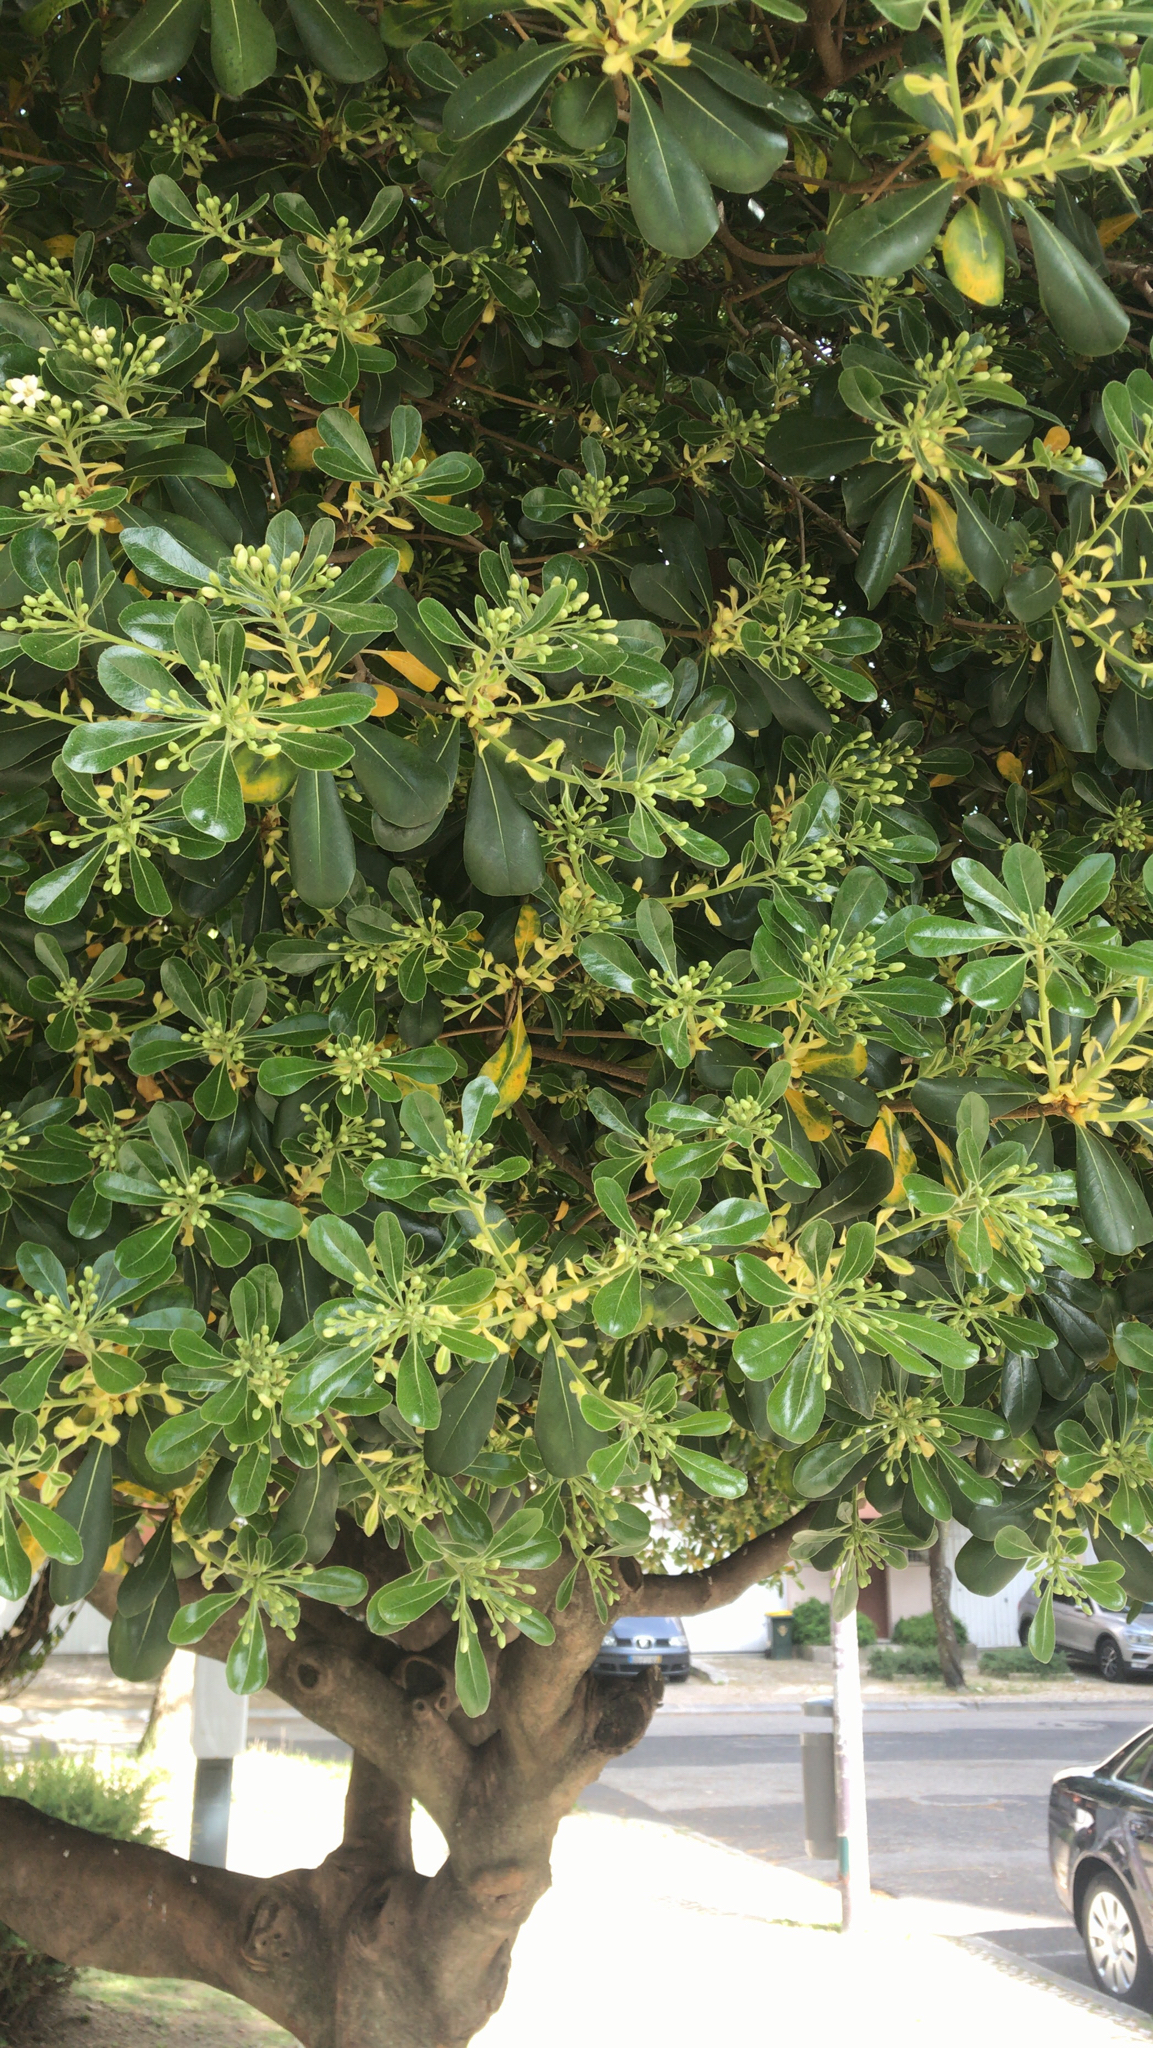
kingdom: Plantae
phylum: Tracheophyta
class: Magnoliopsida
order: Apiales
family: Pittosporaceae
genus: Pittosporum
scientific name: Pittosporum tobira
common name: Japanese cheesewood
